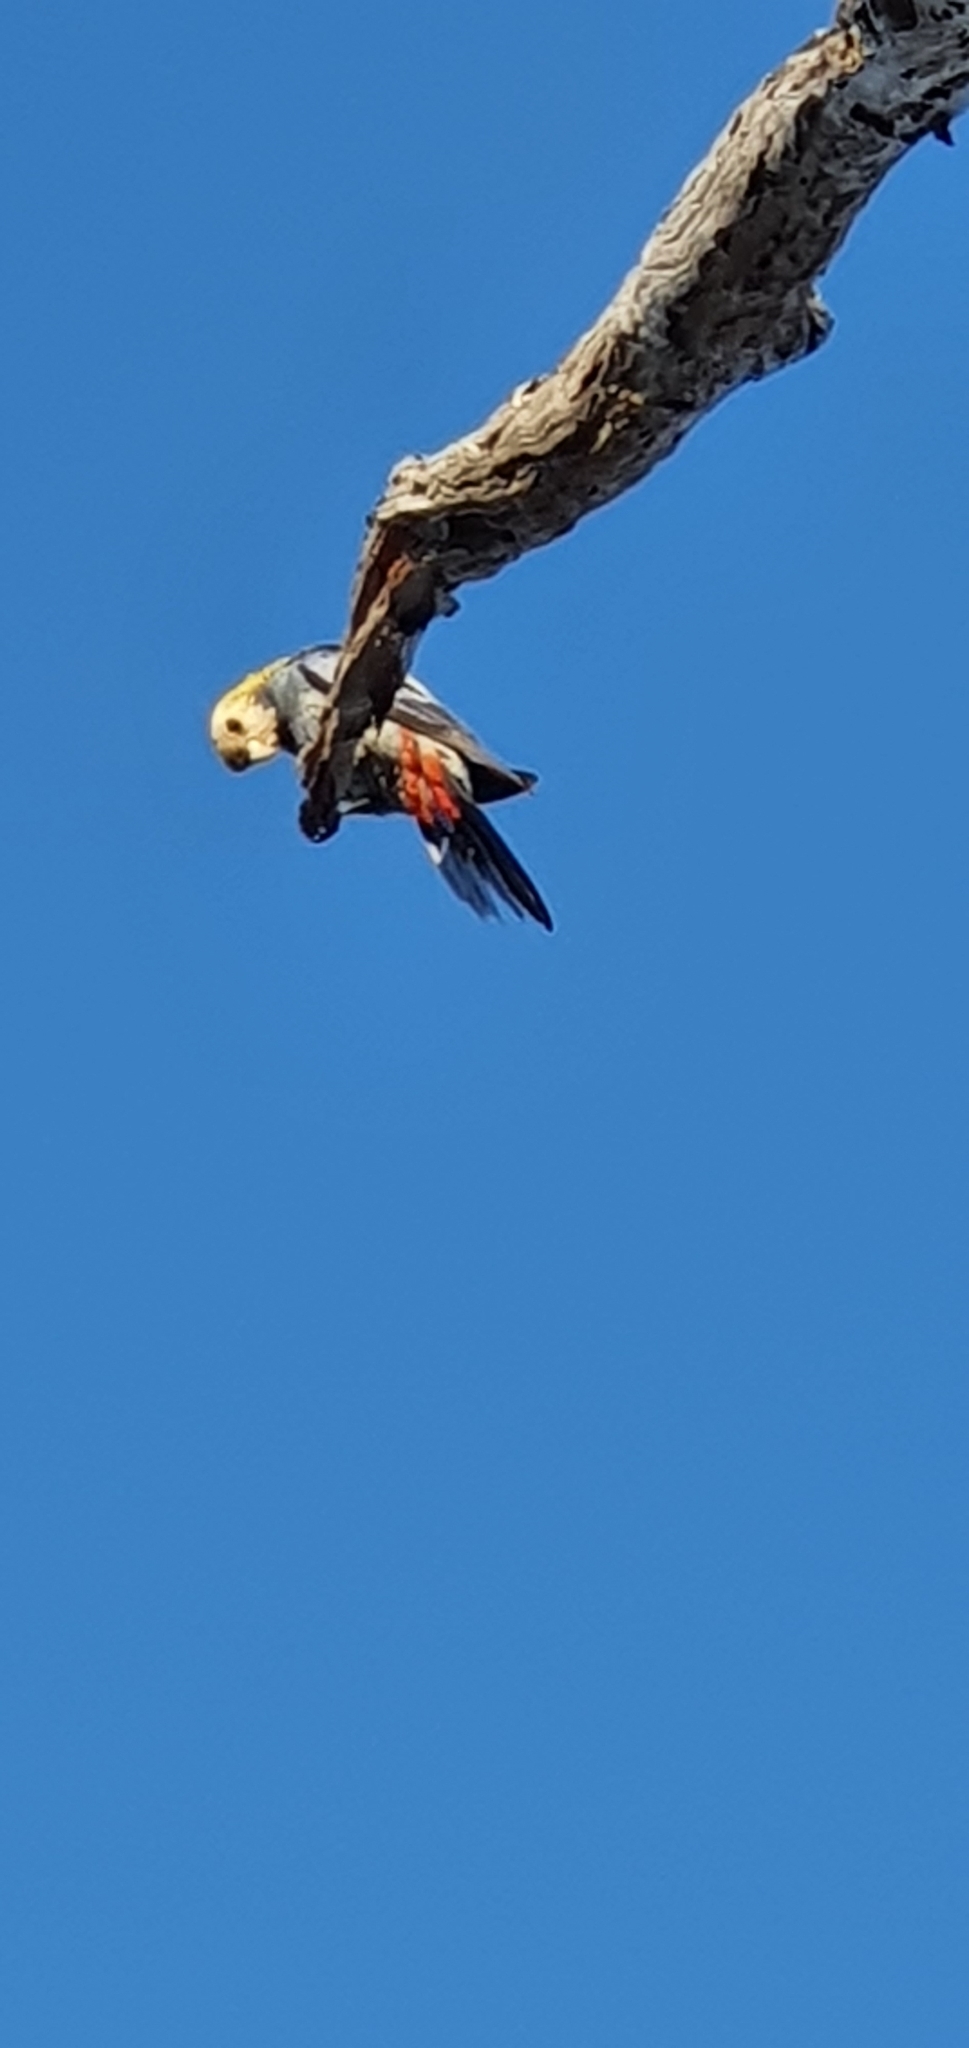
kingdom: Animalia
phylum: Chordata
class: Aves
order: Psittaciformes
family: Psittacidae
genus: Platycercus
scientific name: Platycercus adscitus
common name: Pale-headed rosella
